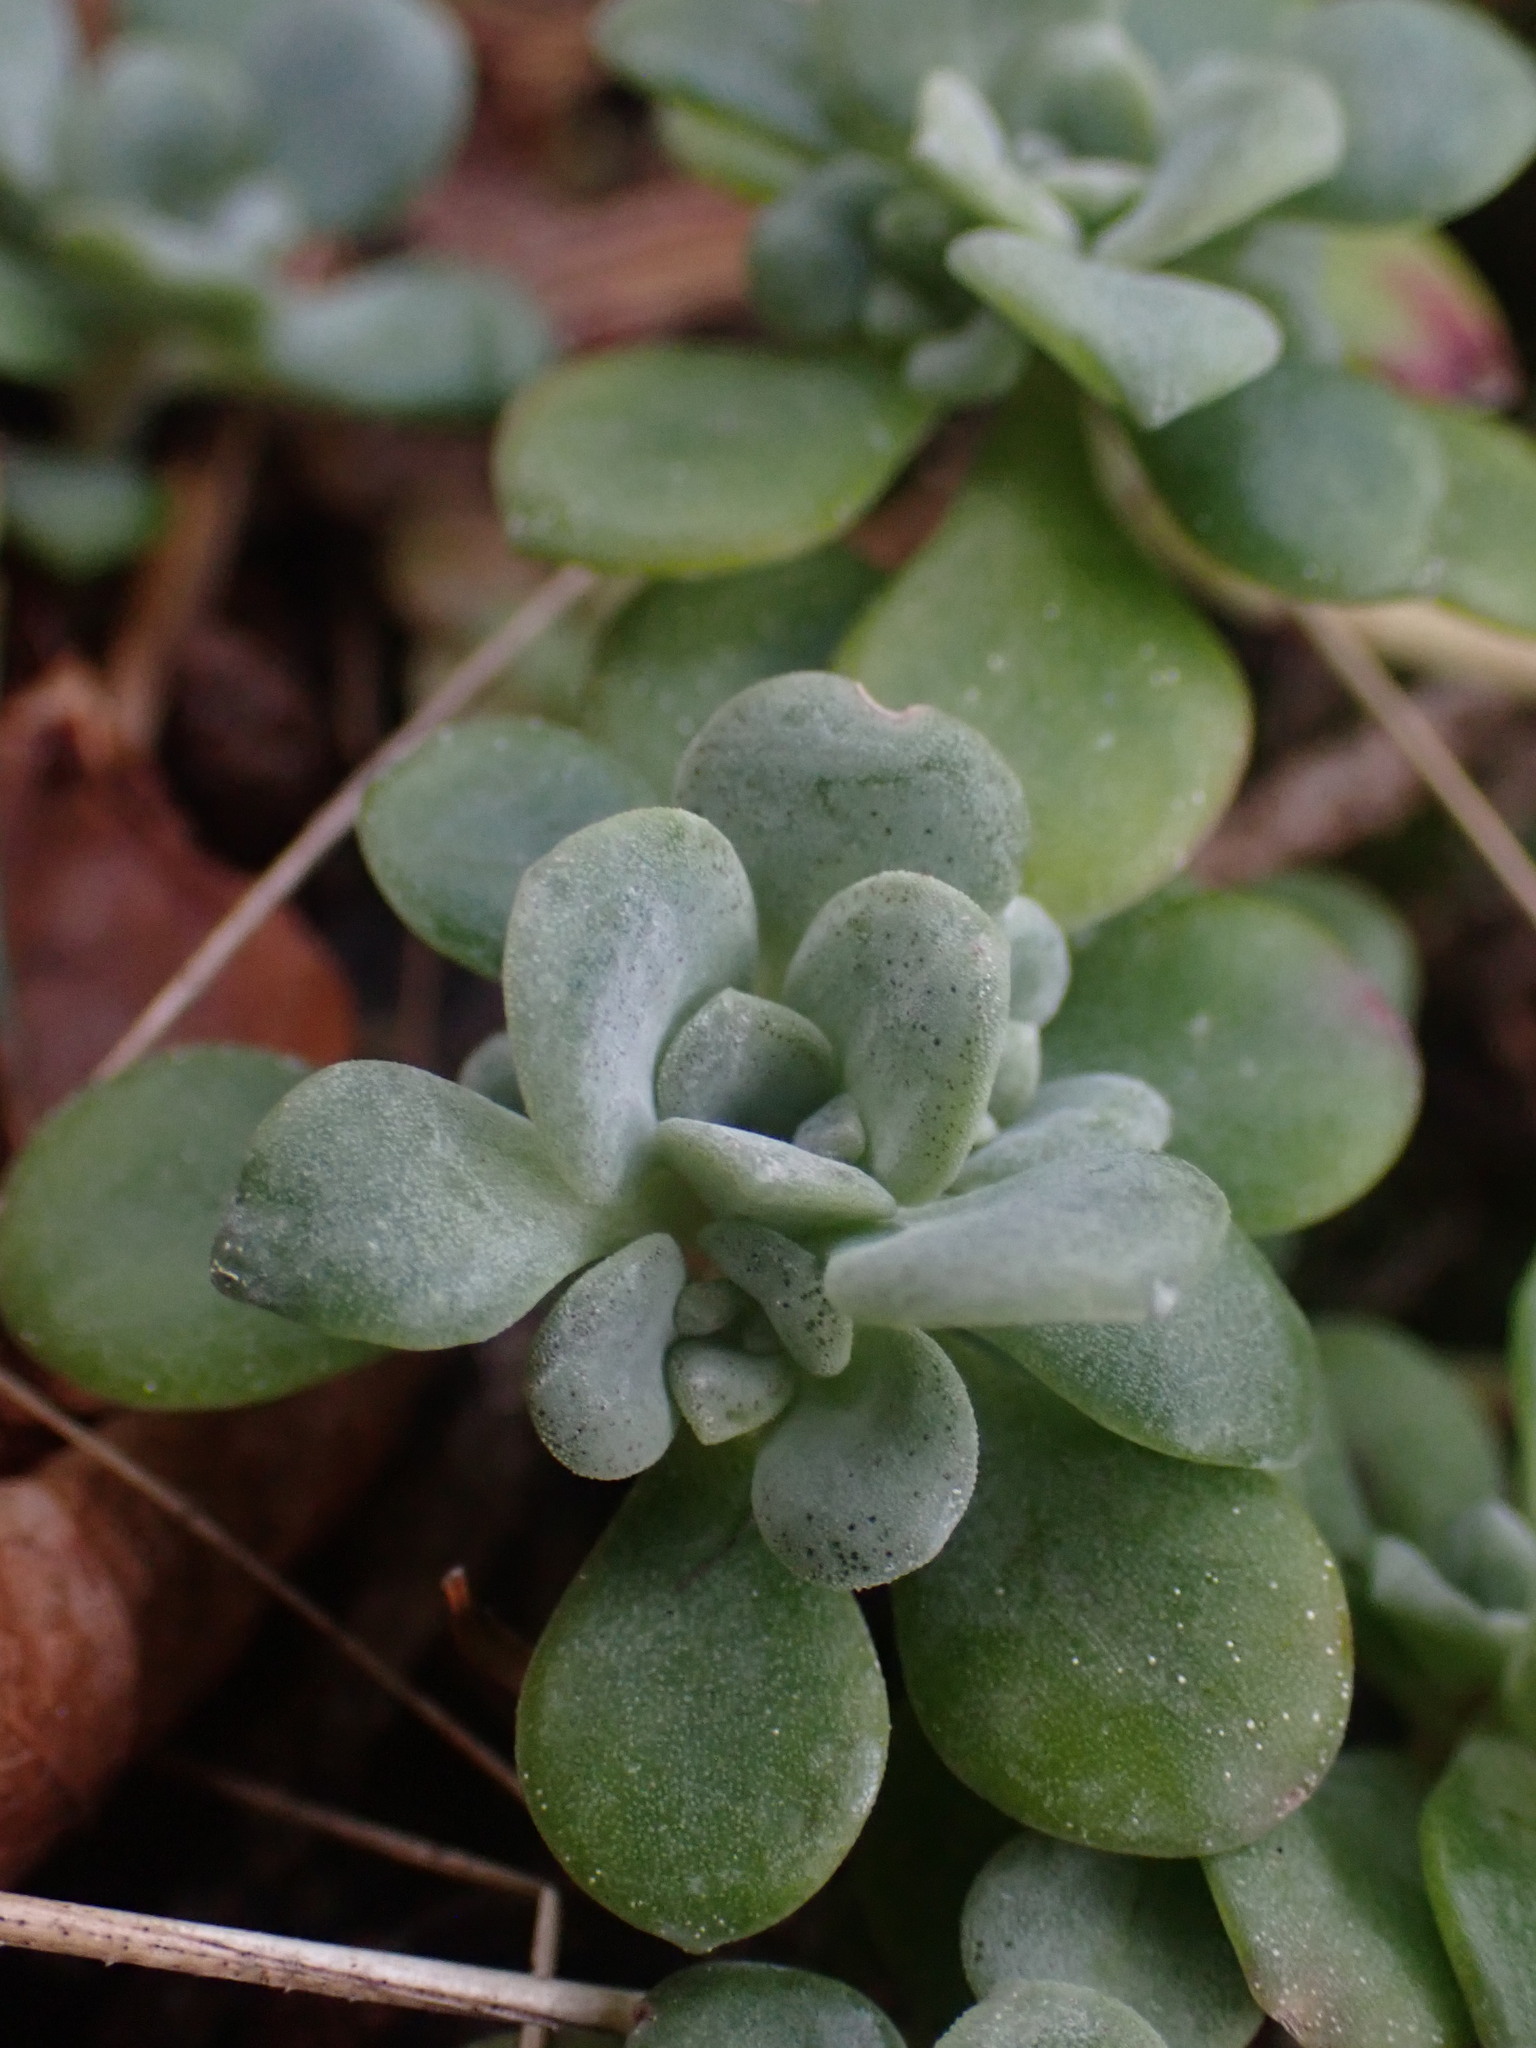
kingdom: Plantae
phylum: Tracheophyta
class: Magnoliopsida
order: Saxifragales
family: Crassulaceae
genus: Sedum
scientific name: Sedum spathulifolium
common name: Colorado stonecrop
